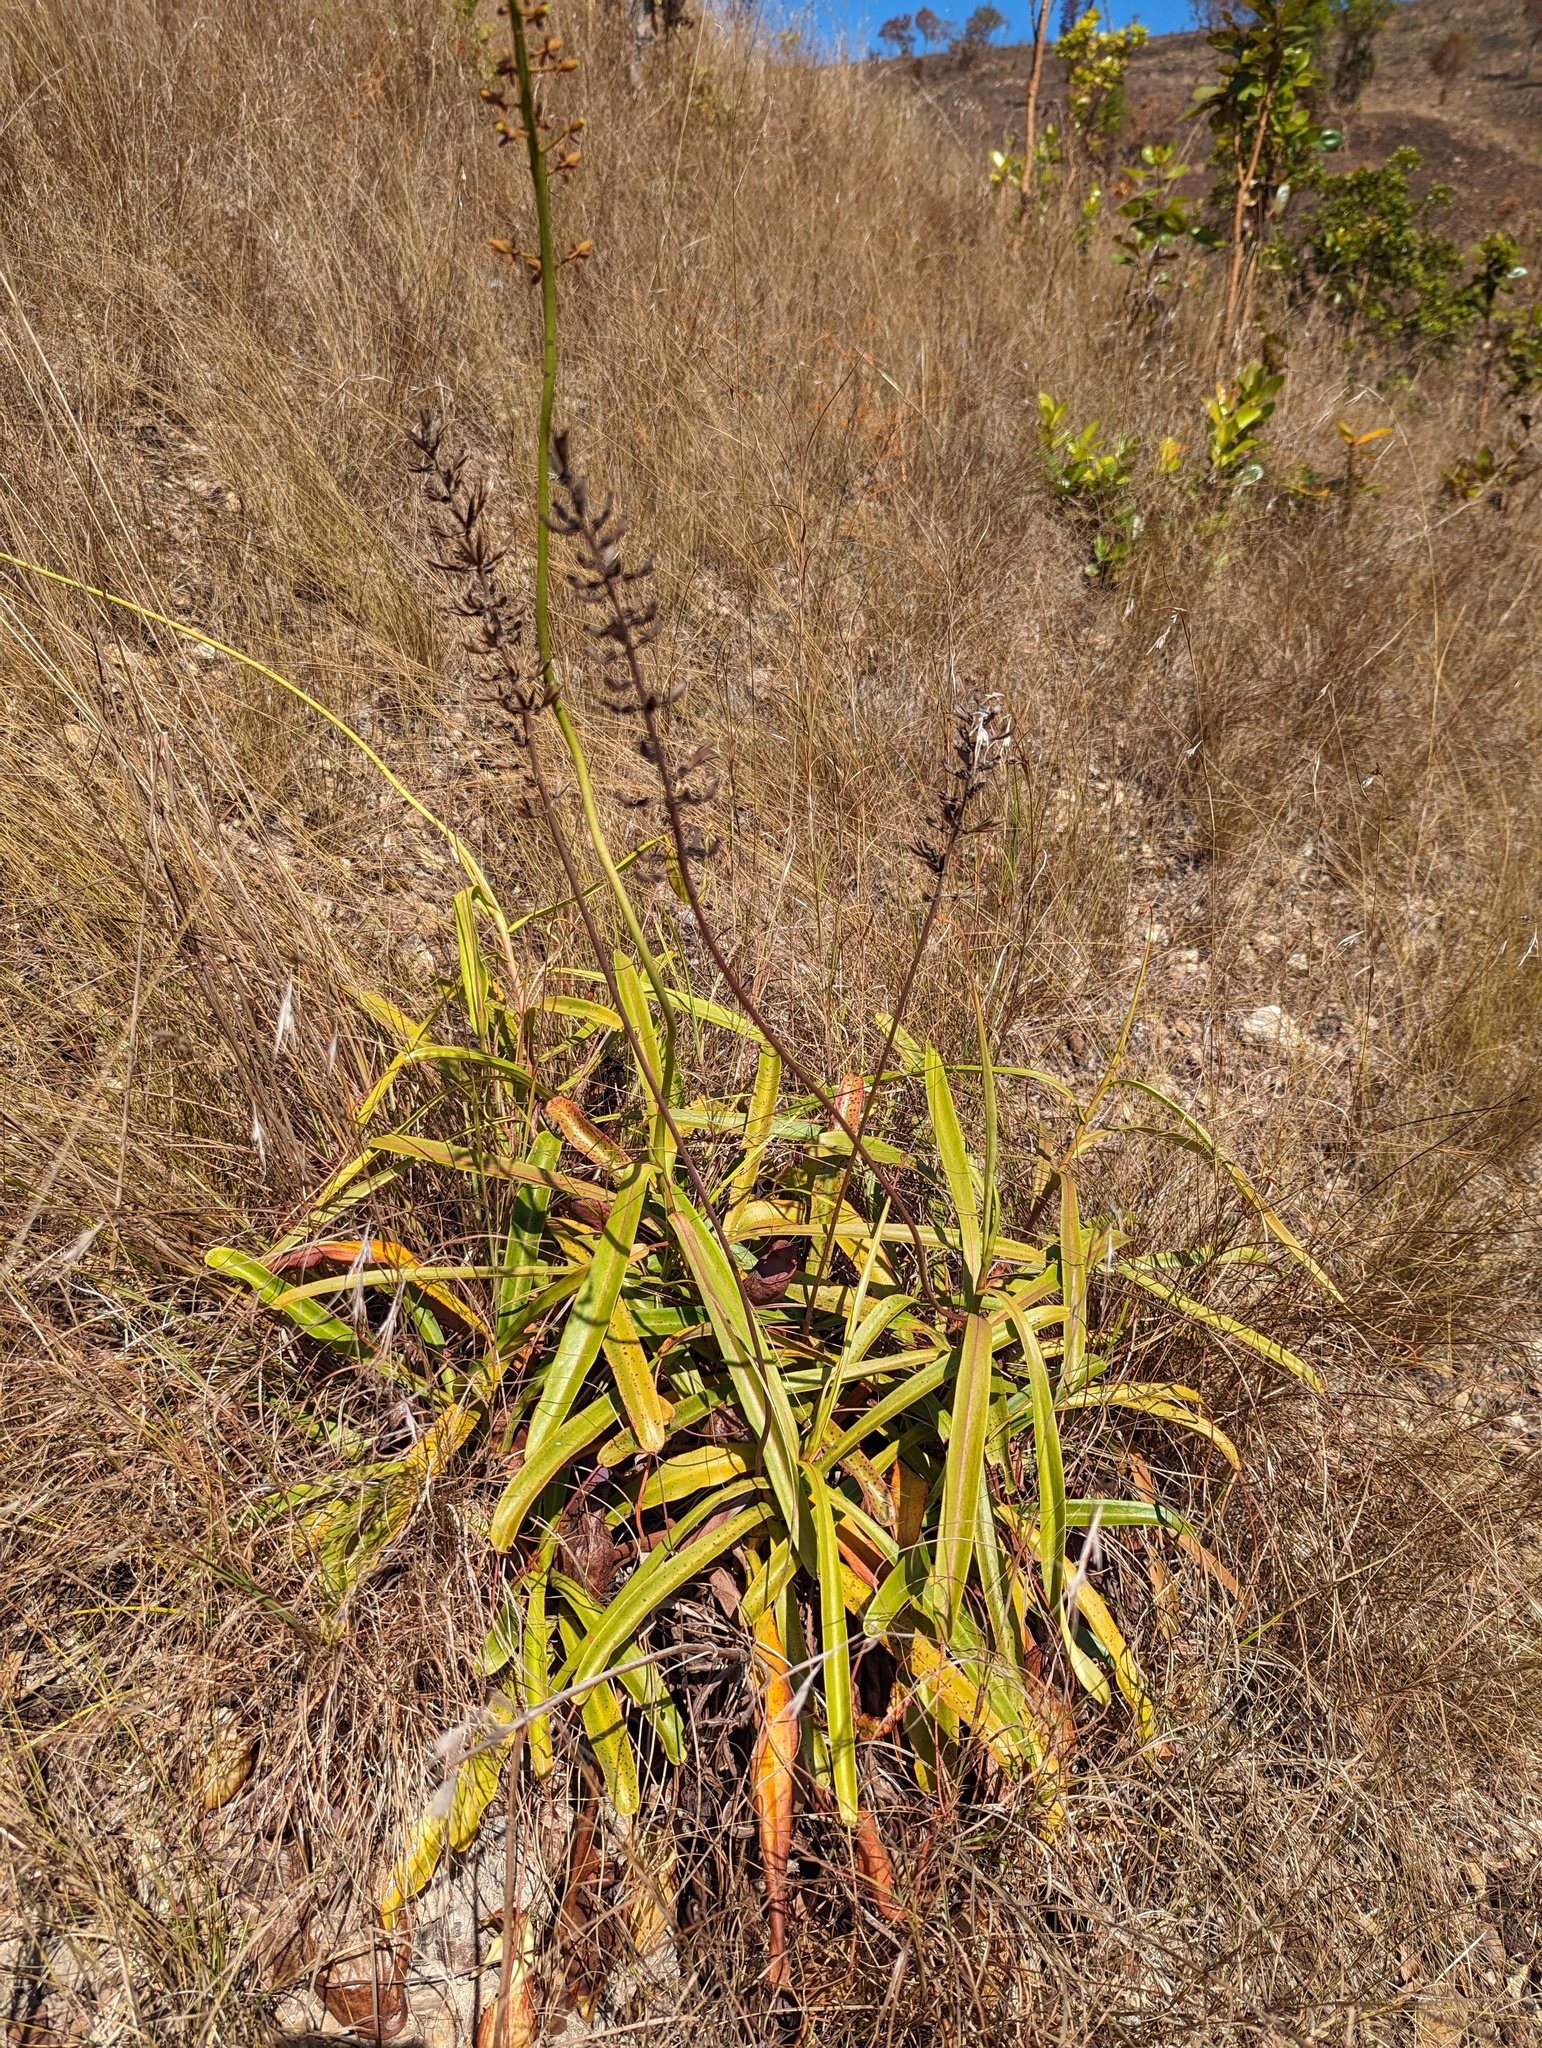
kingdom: Plantae
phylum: Tracheophyta
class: Magnoliopsida
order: Caryophyllales
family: Nepenthaceae
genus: Nepenthes
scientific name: Nepenthes abalata
